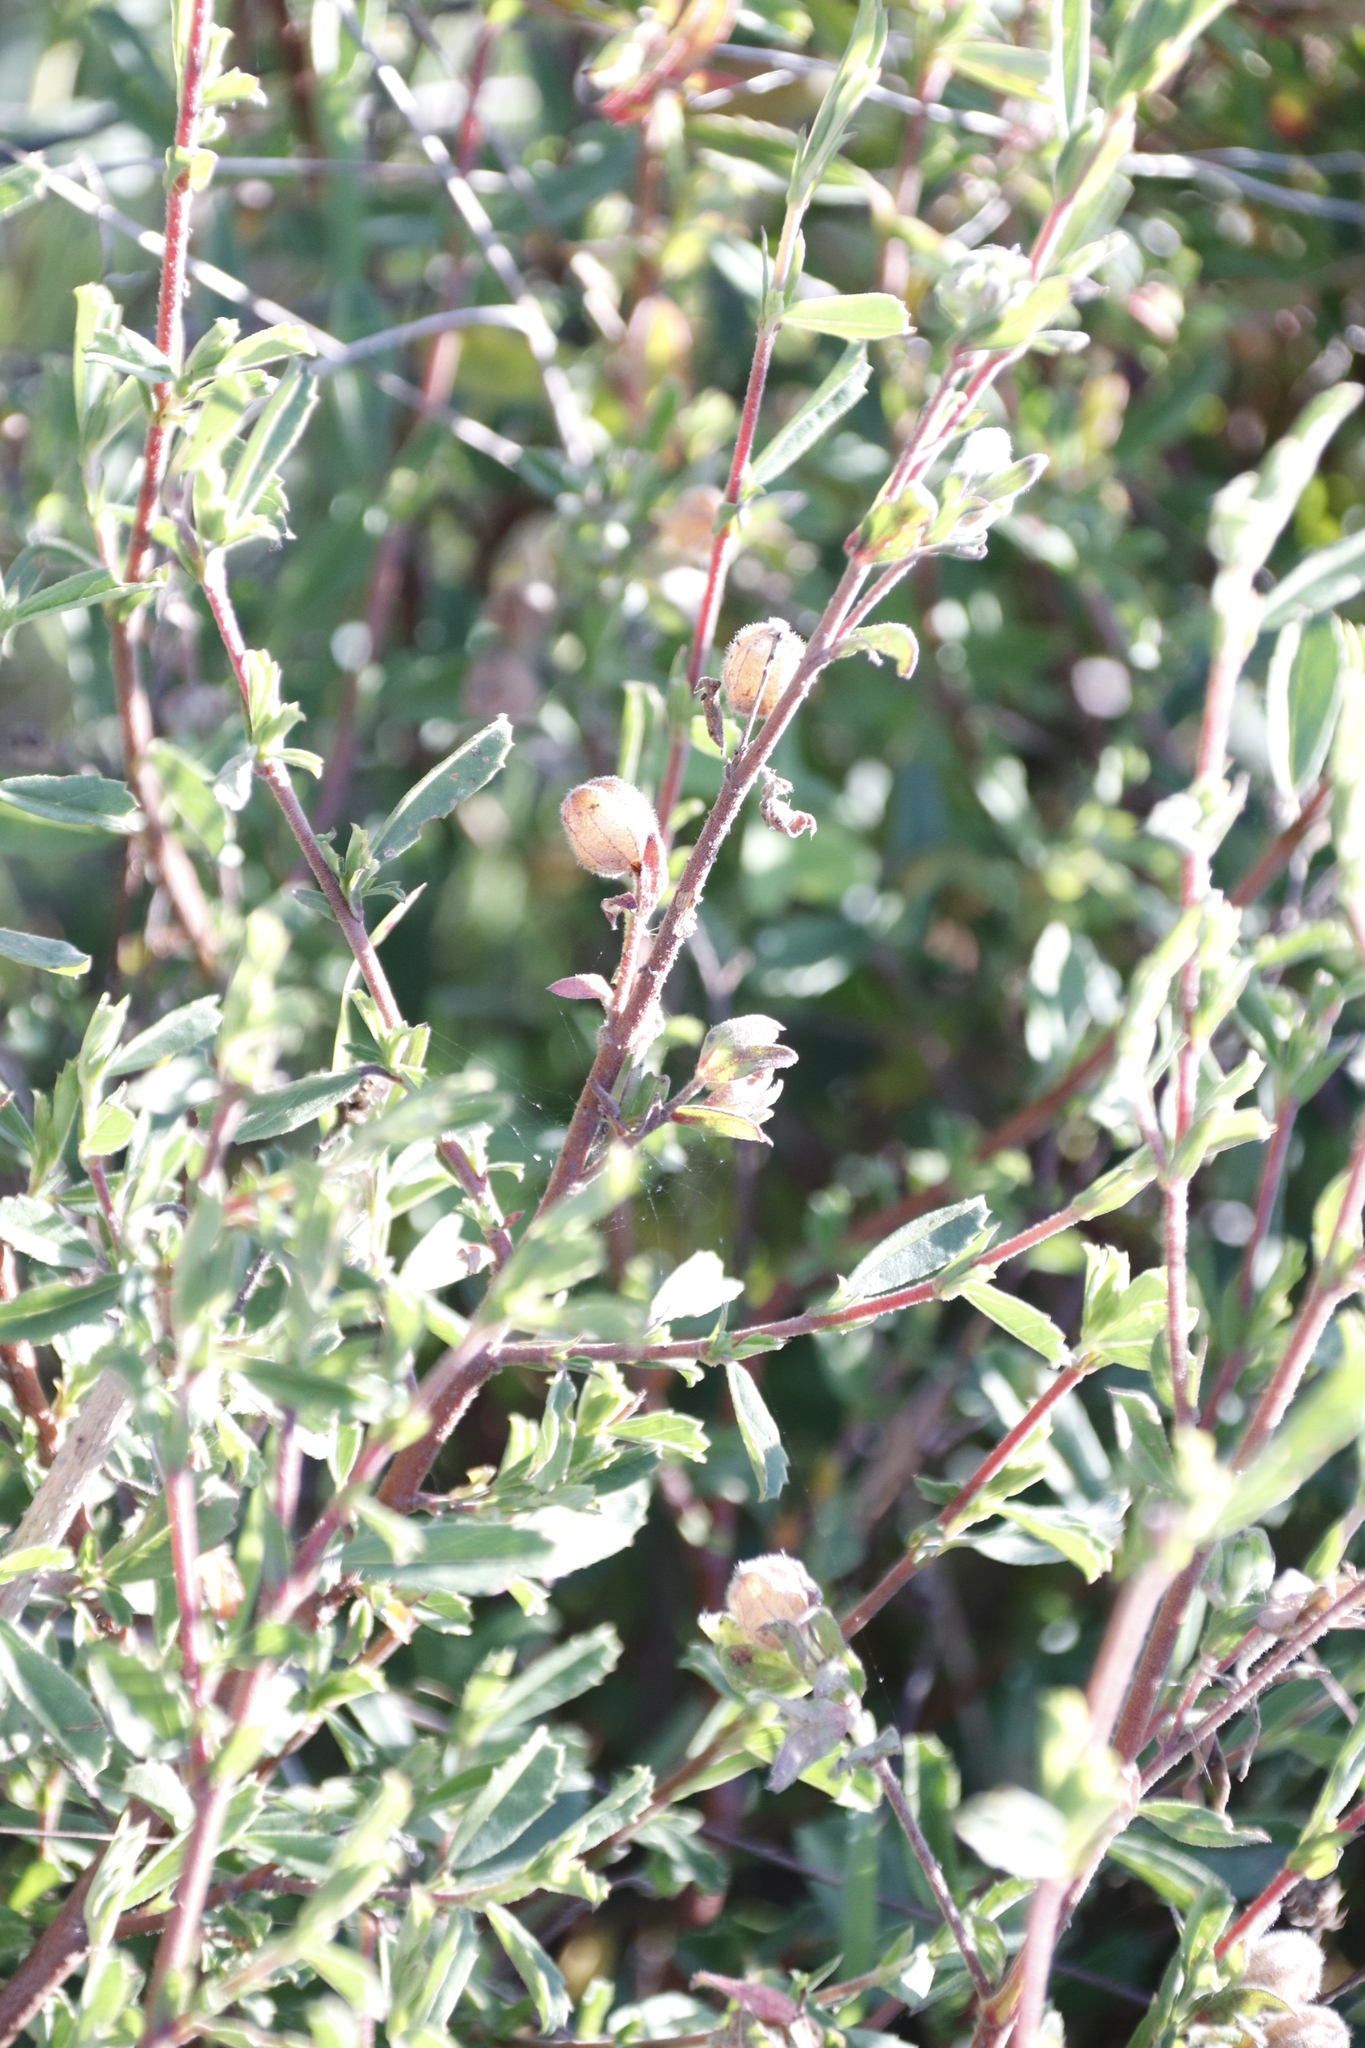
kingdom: Plantae
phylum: Tracheophyta
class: Magnoliopsida
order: Malvales
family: Malvaceae
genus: Hermannia
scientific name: Hermannia hyssopifolia
